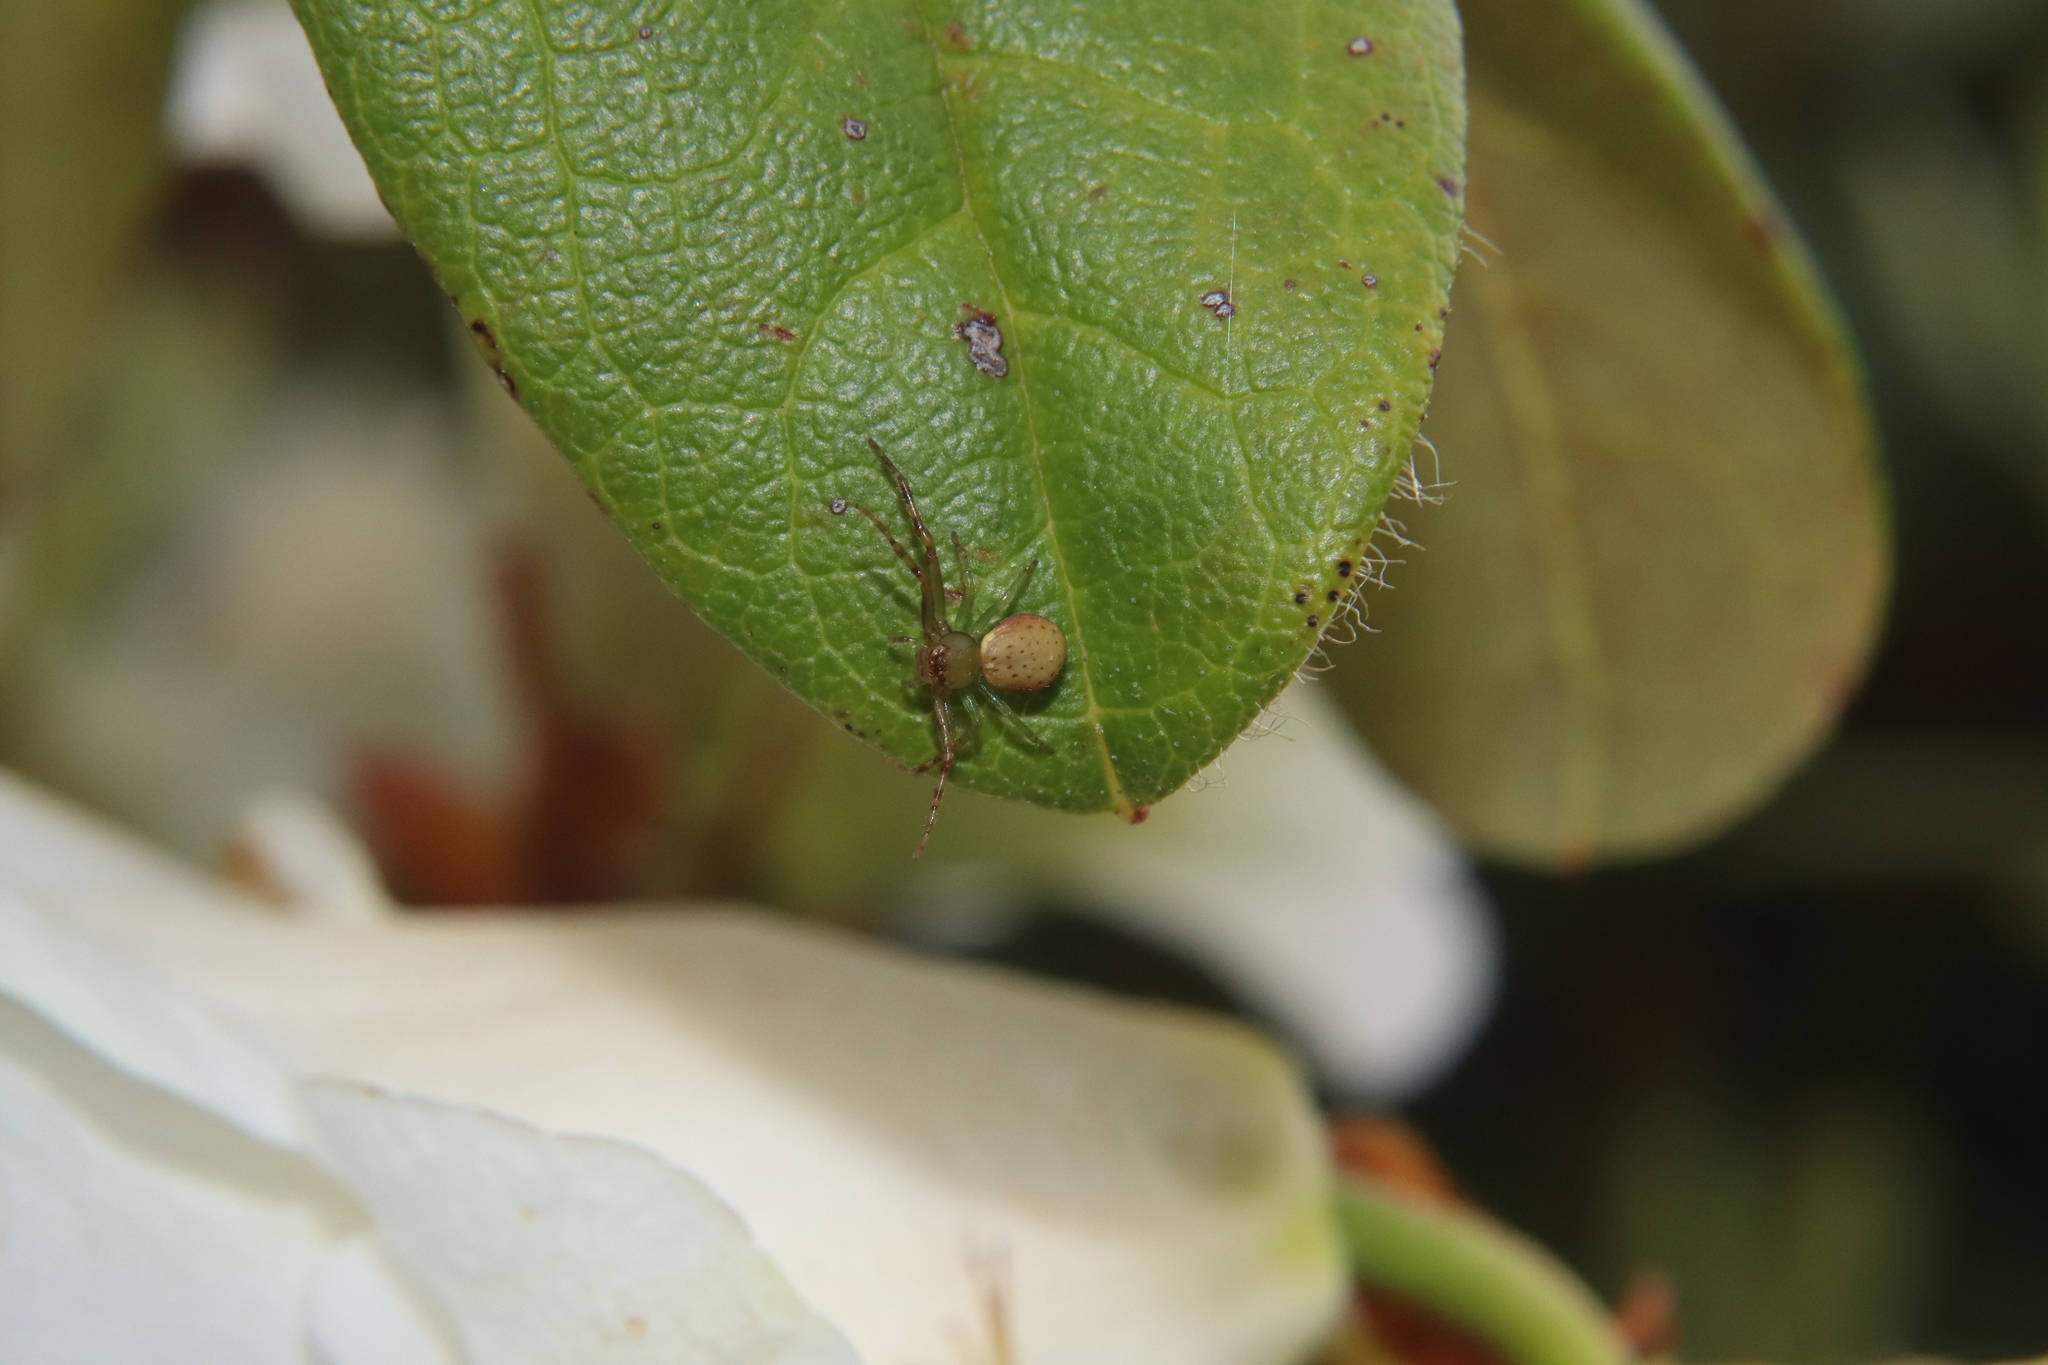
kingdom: Animalia
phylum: Arthropoda
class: Arachnida
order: Araneae
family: Thomisidae
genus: Diaea
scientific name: Diaea ambara
